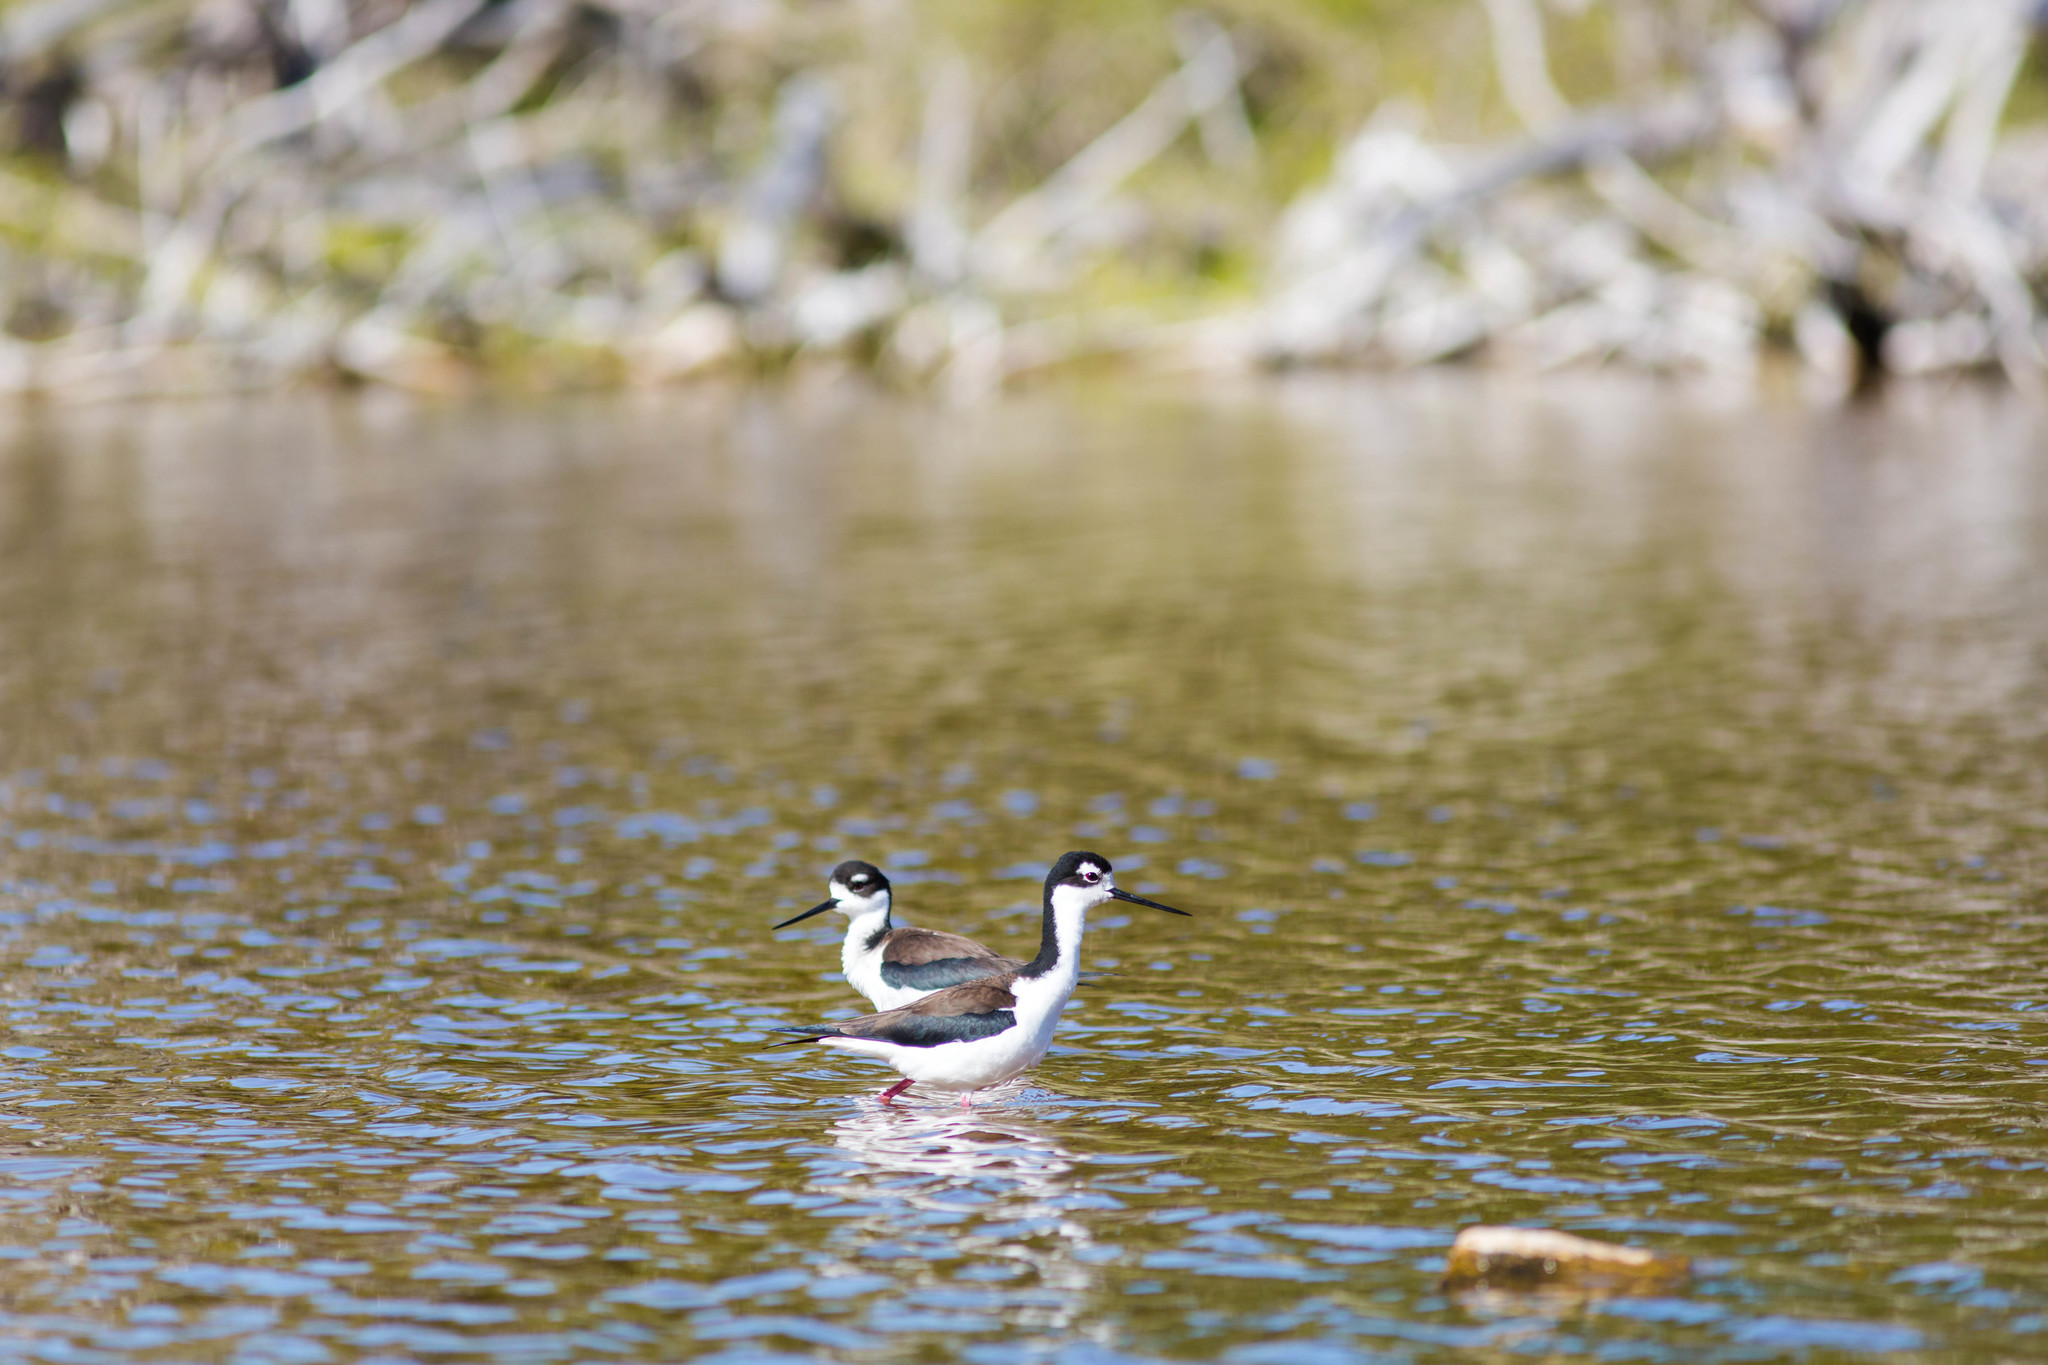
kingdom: Animalia
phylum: Chordata
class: Aves
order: Charadriiformes
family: Recurvirostridae
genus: Himantopus
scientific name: Himantopus mexicanus
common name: Black-necked stilt
